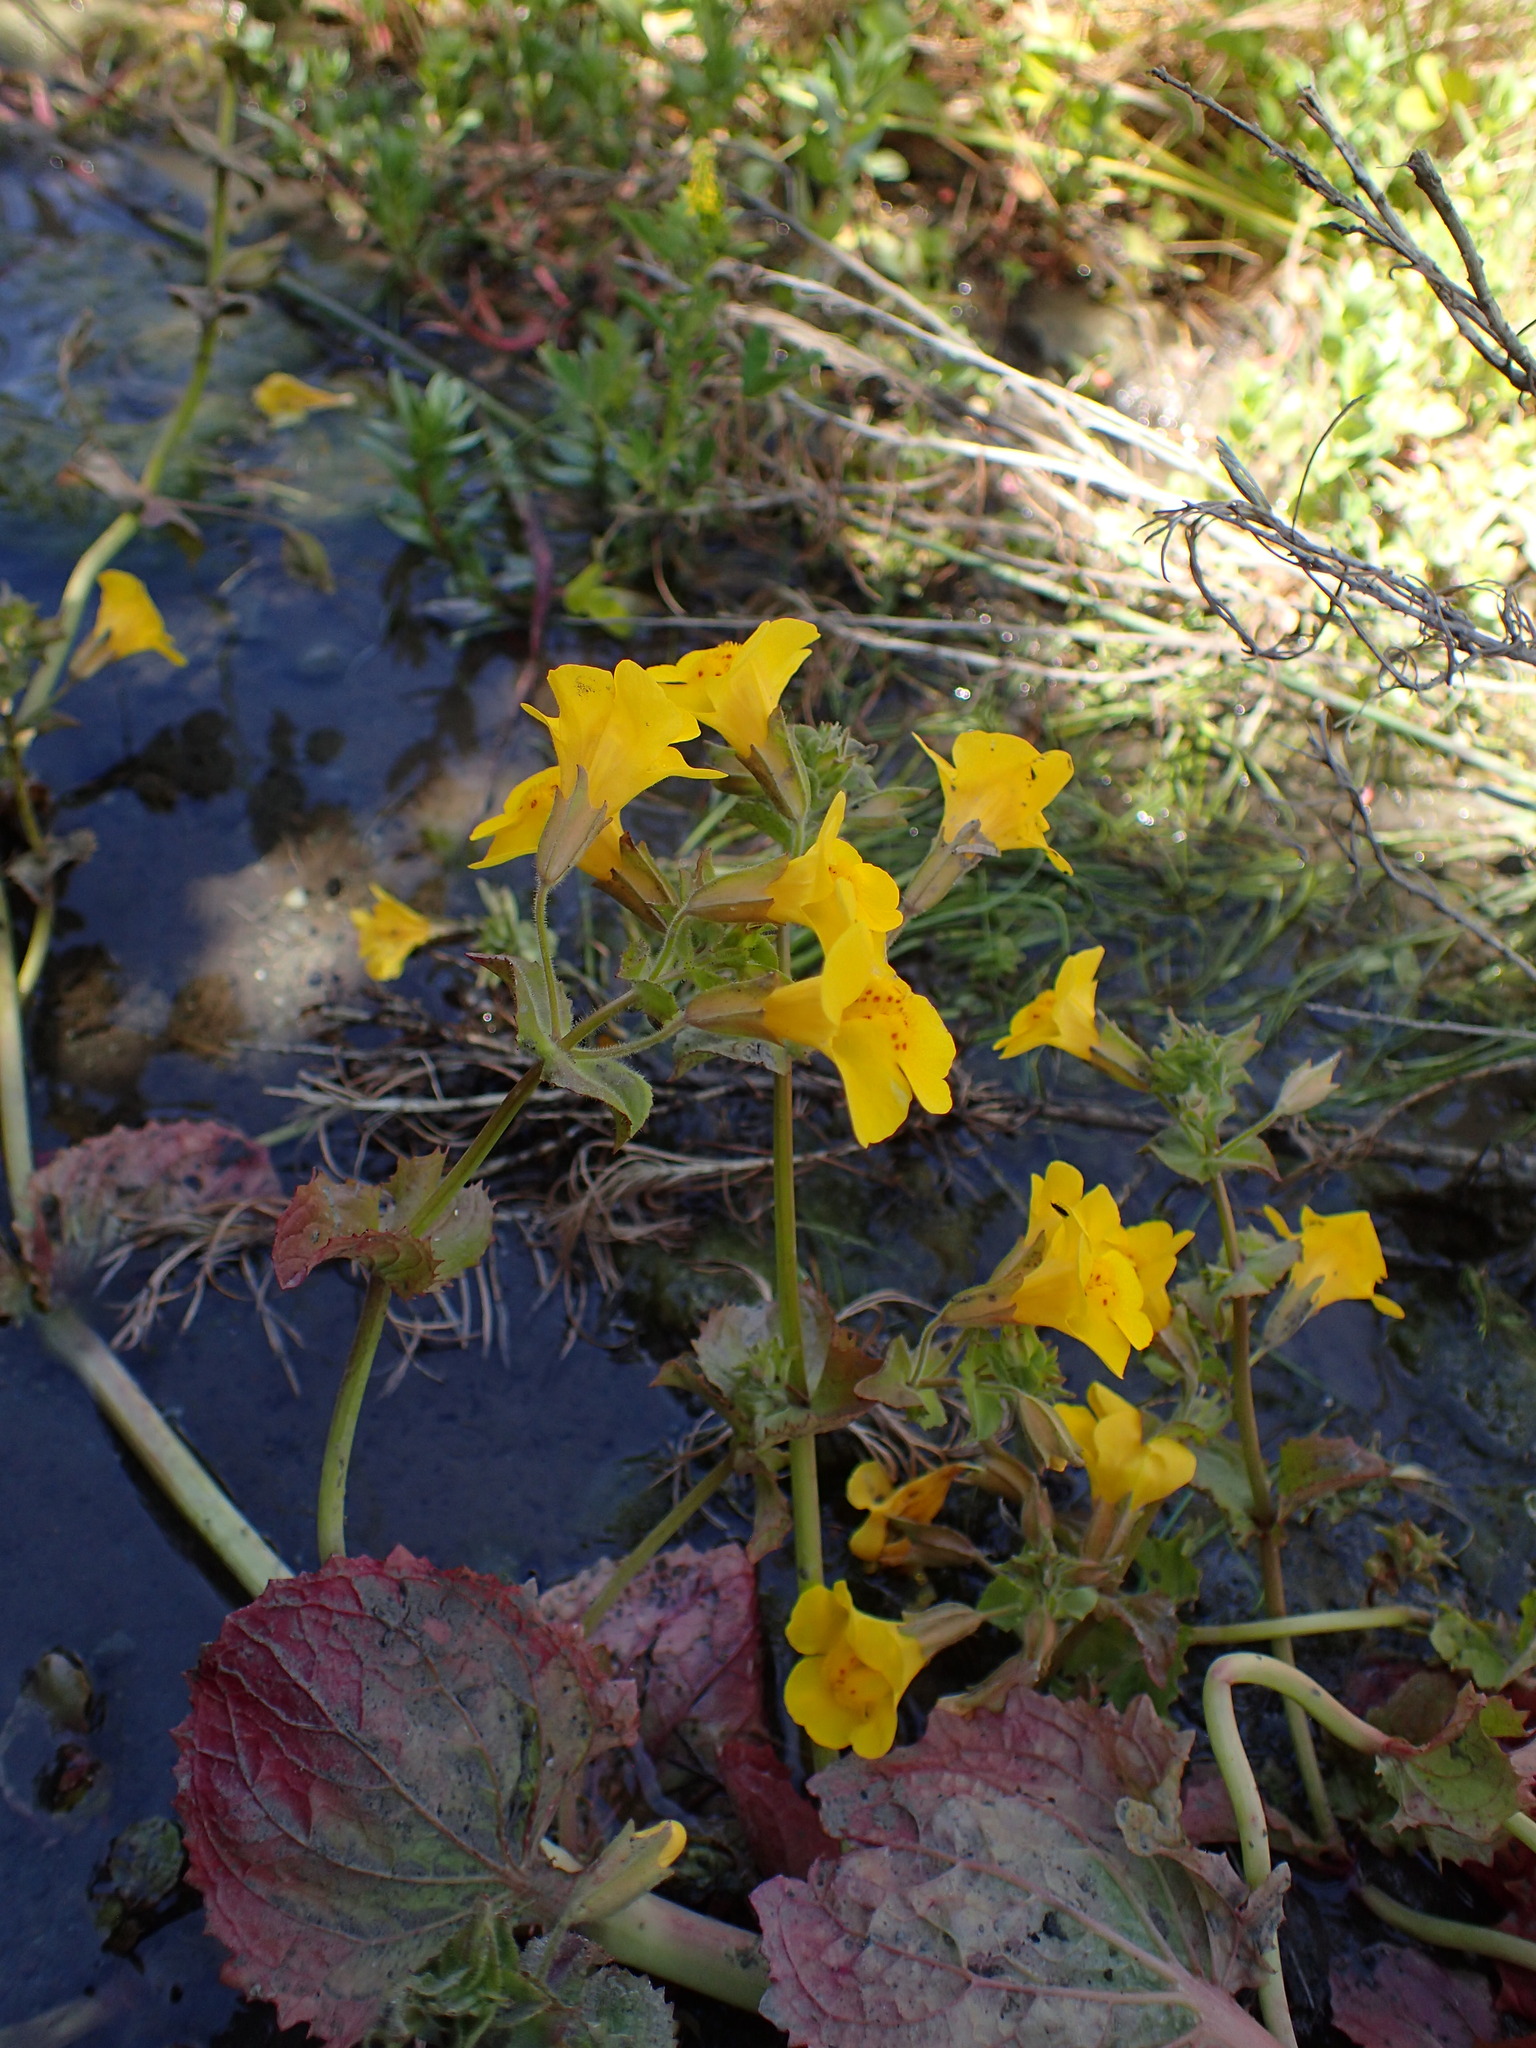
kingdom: Plantae
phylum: Tracheophyta
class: Magnoliopsida
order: Lamiales
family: Phrymaceae
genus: Erythranthe
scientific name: Erythranthe guttata
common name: Monkeyflower
